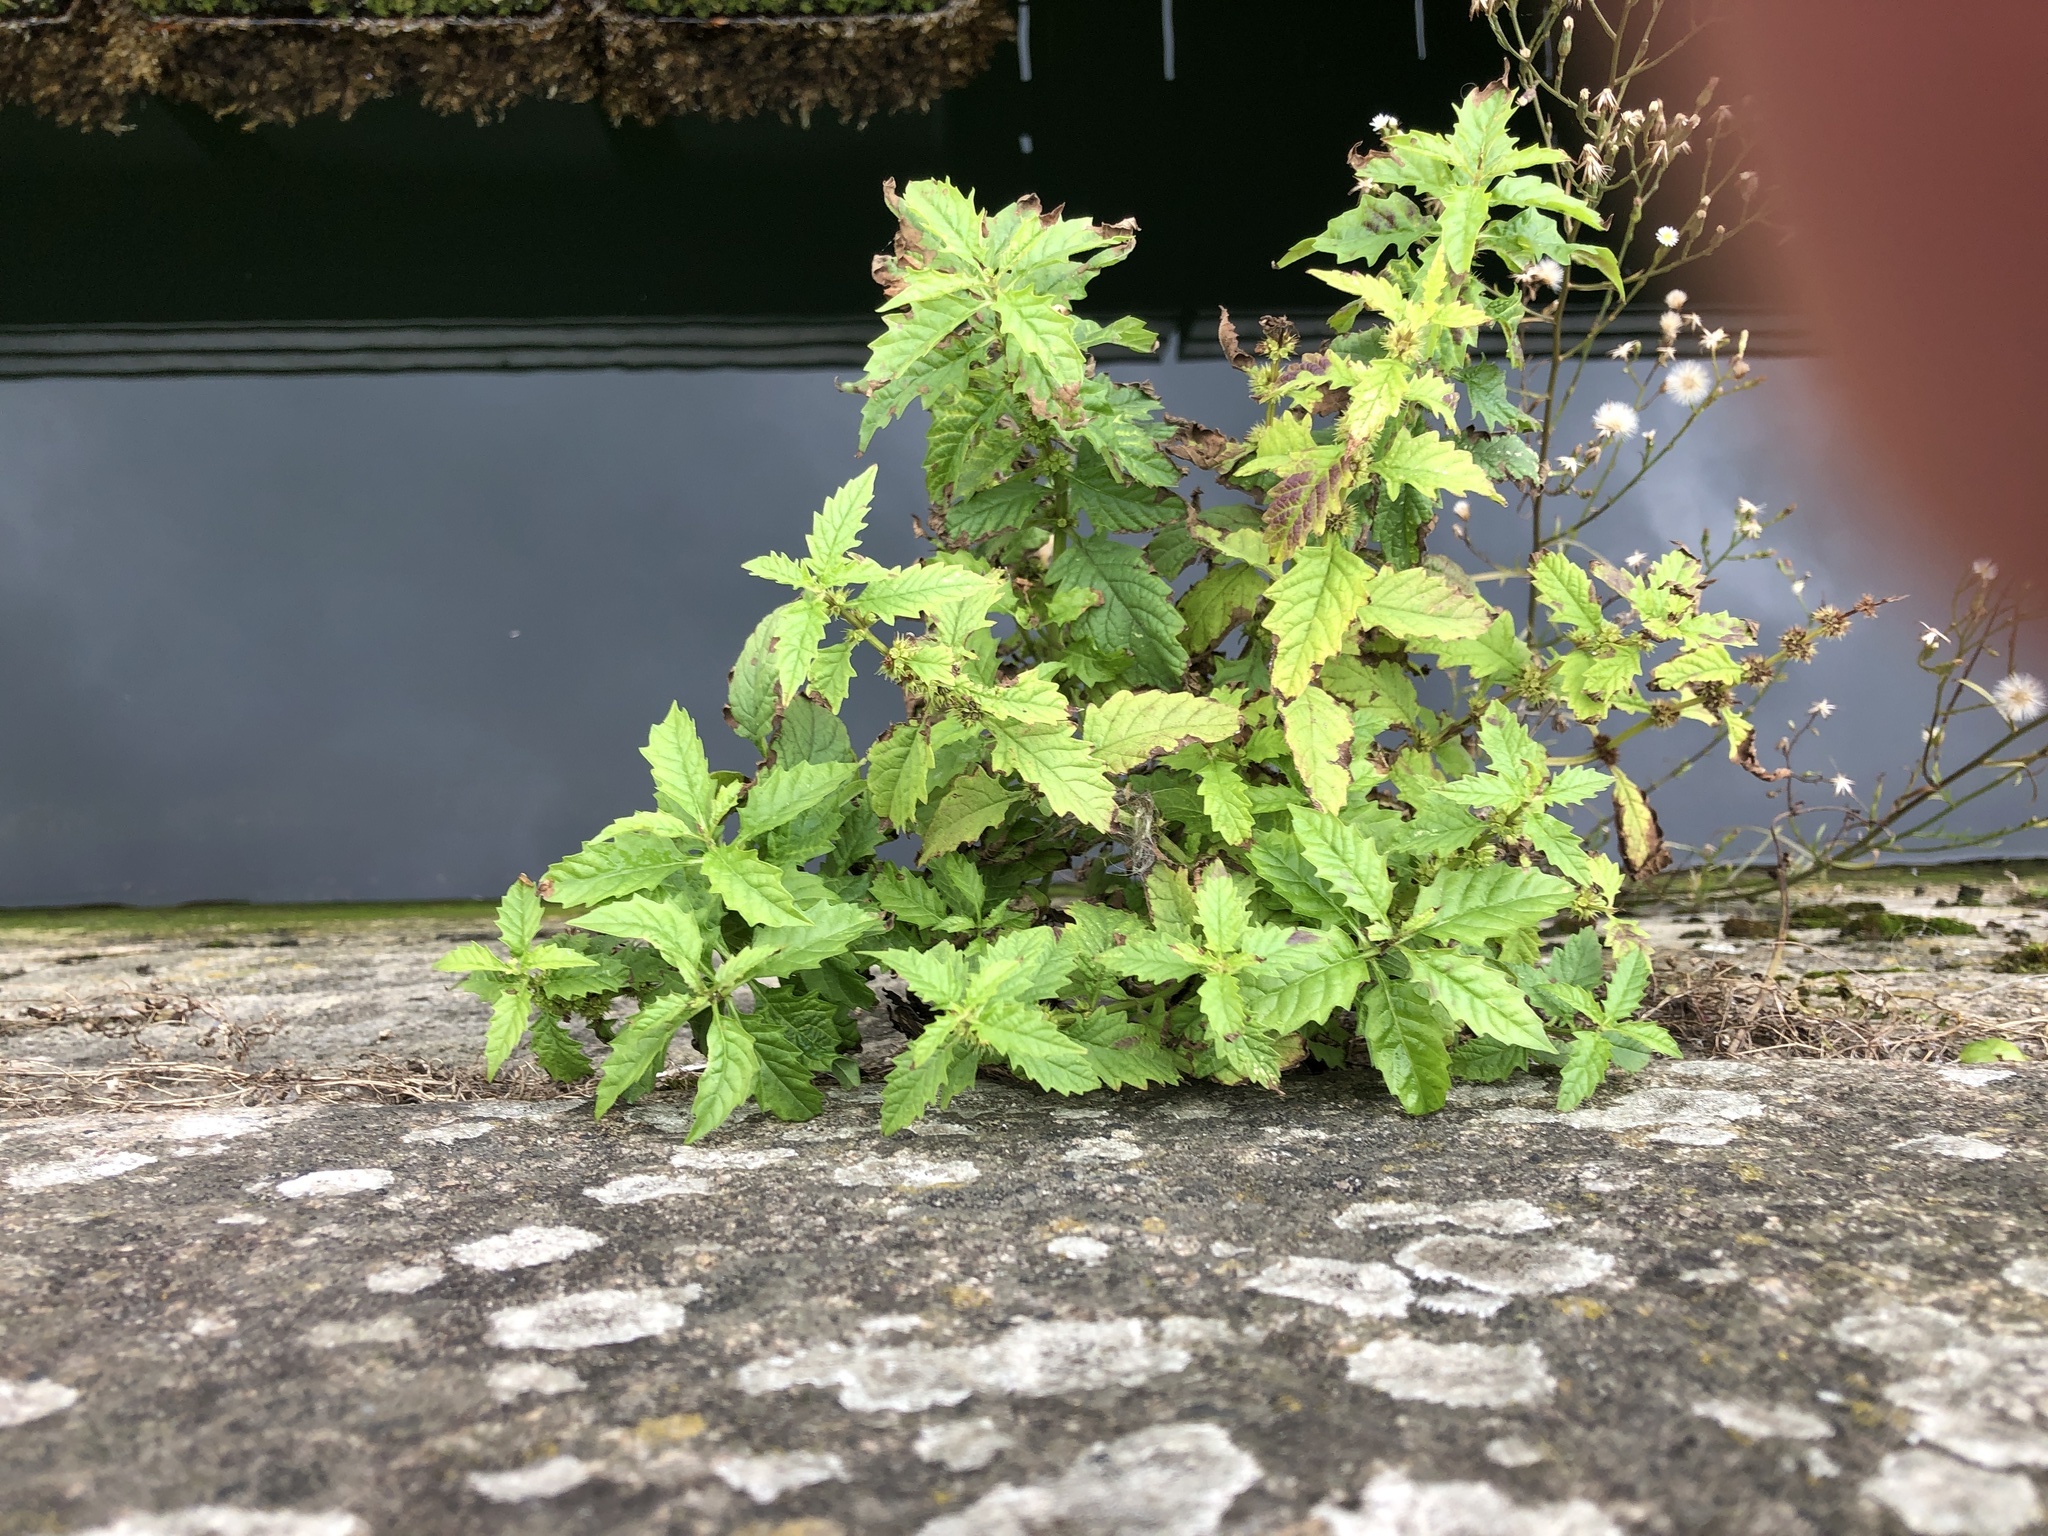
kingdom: Plantae
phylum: Tracheophyta
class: Magnoliopsida
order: Lamiales
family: Lamiaceae
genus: Lycopus
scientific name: Lycopus europaeus
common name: European bugleweed
